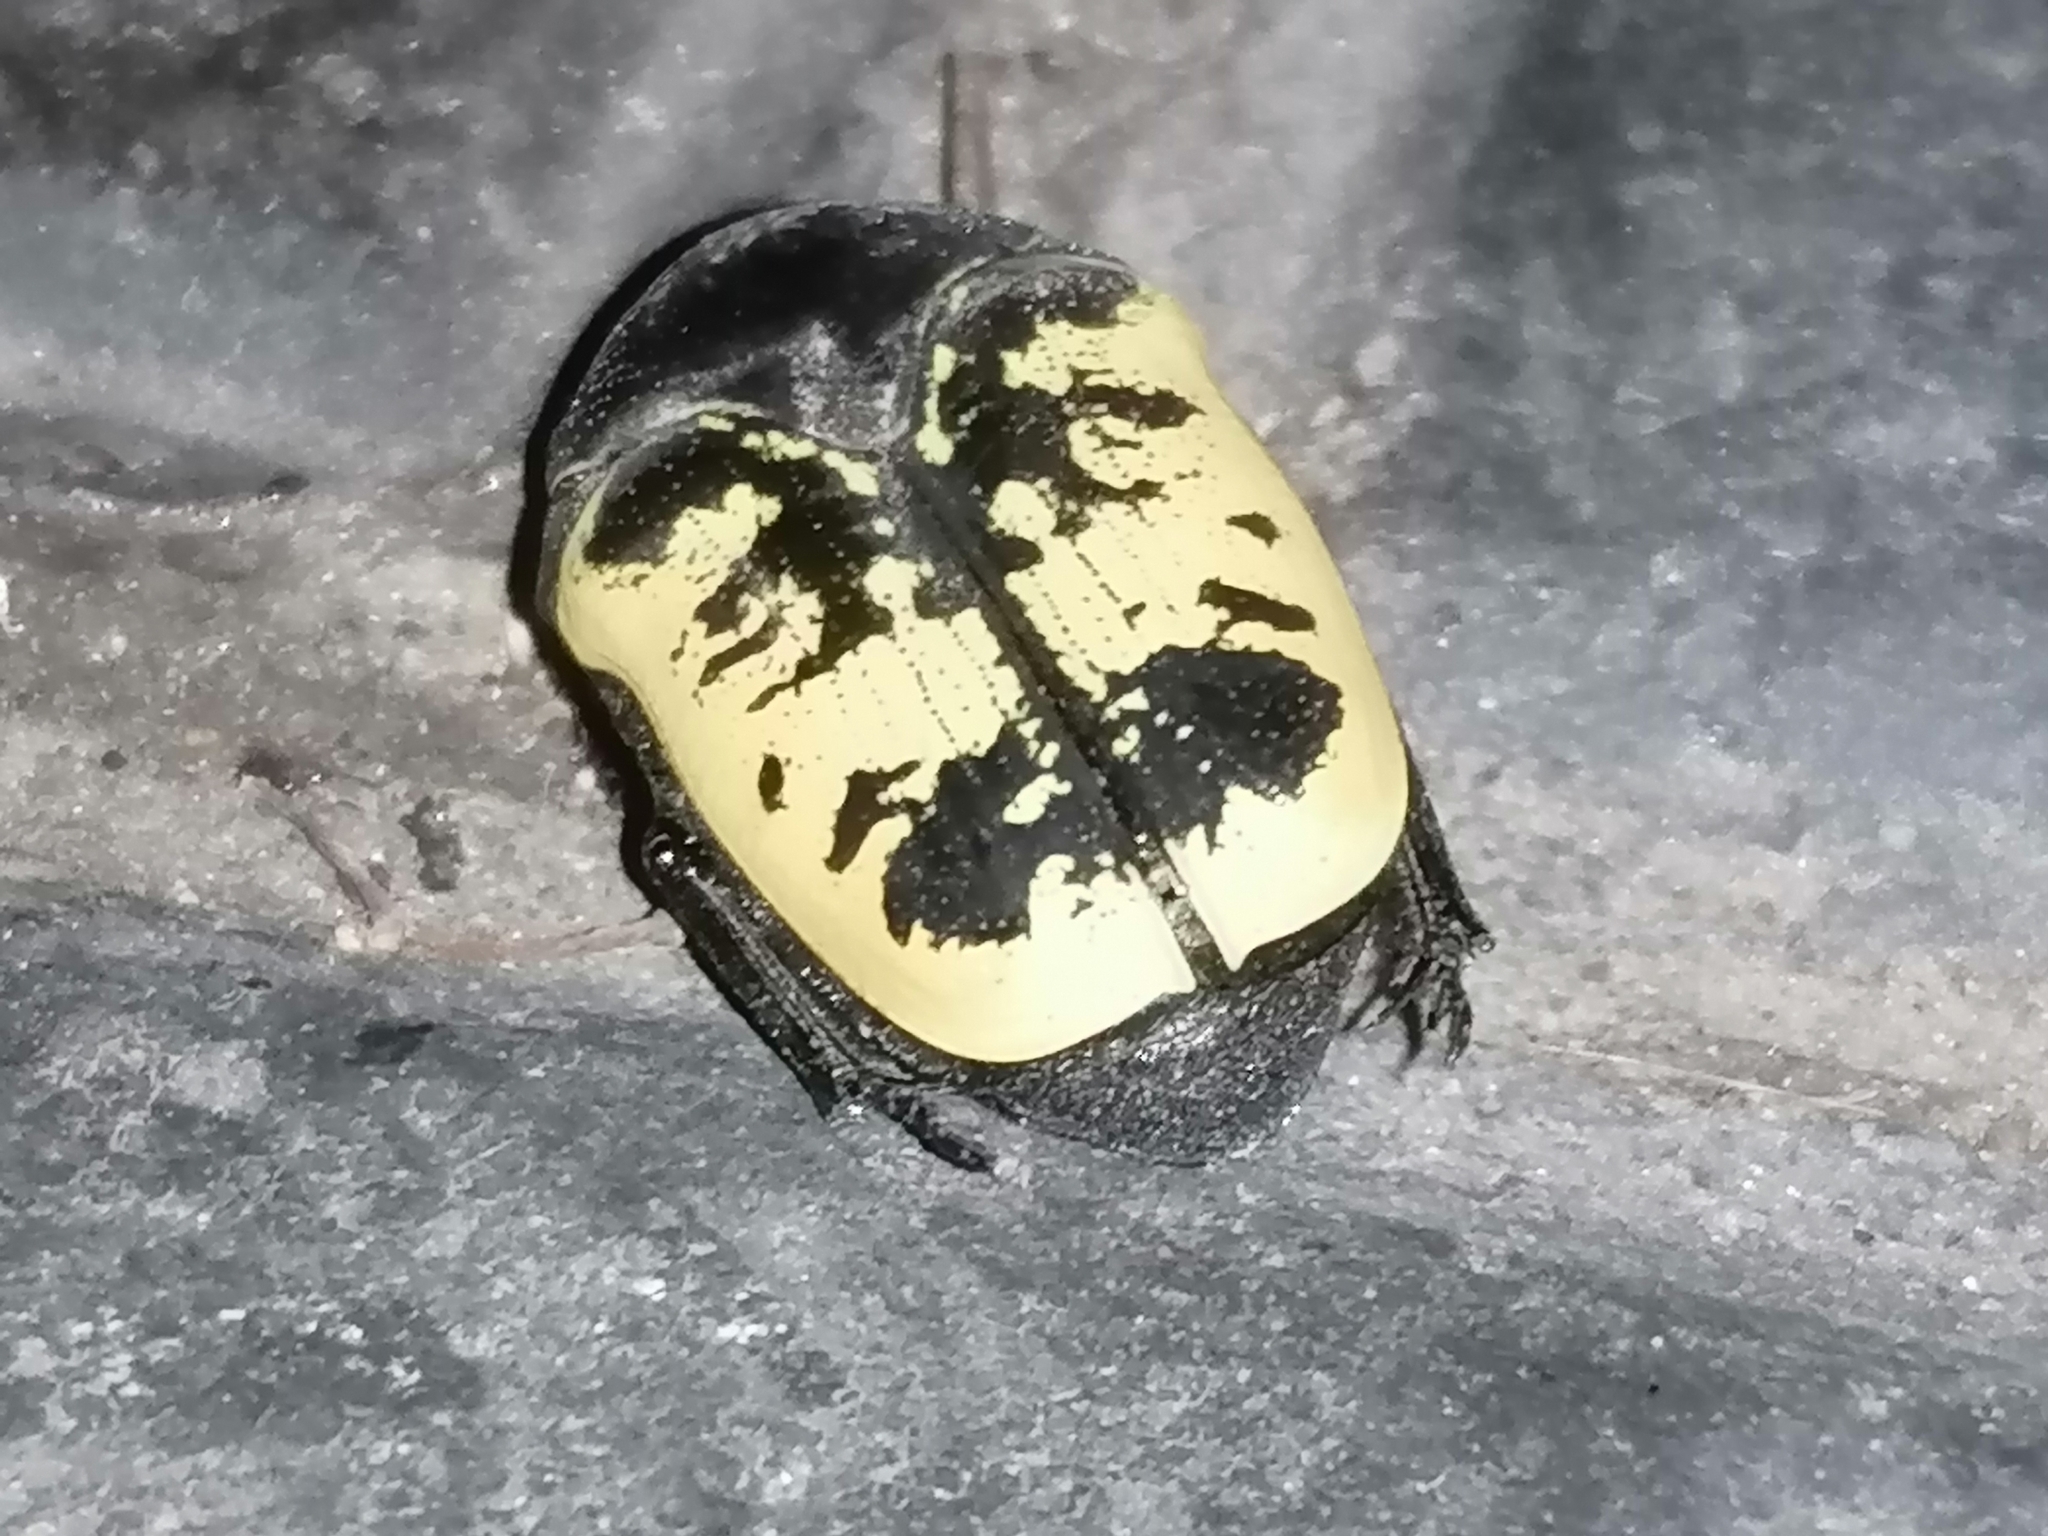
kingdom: Animalia
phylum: Arthropoda
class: Insecta
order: Coleoptera
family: Scarabaeidae
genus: Gymnetis
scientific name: Gymnetis merops
